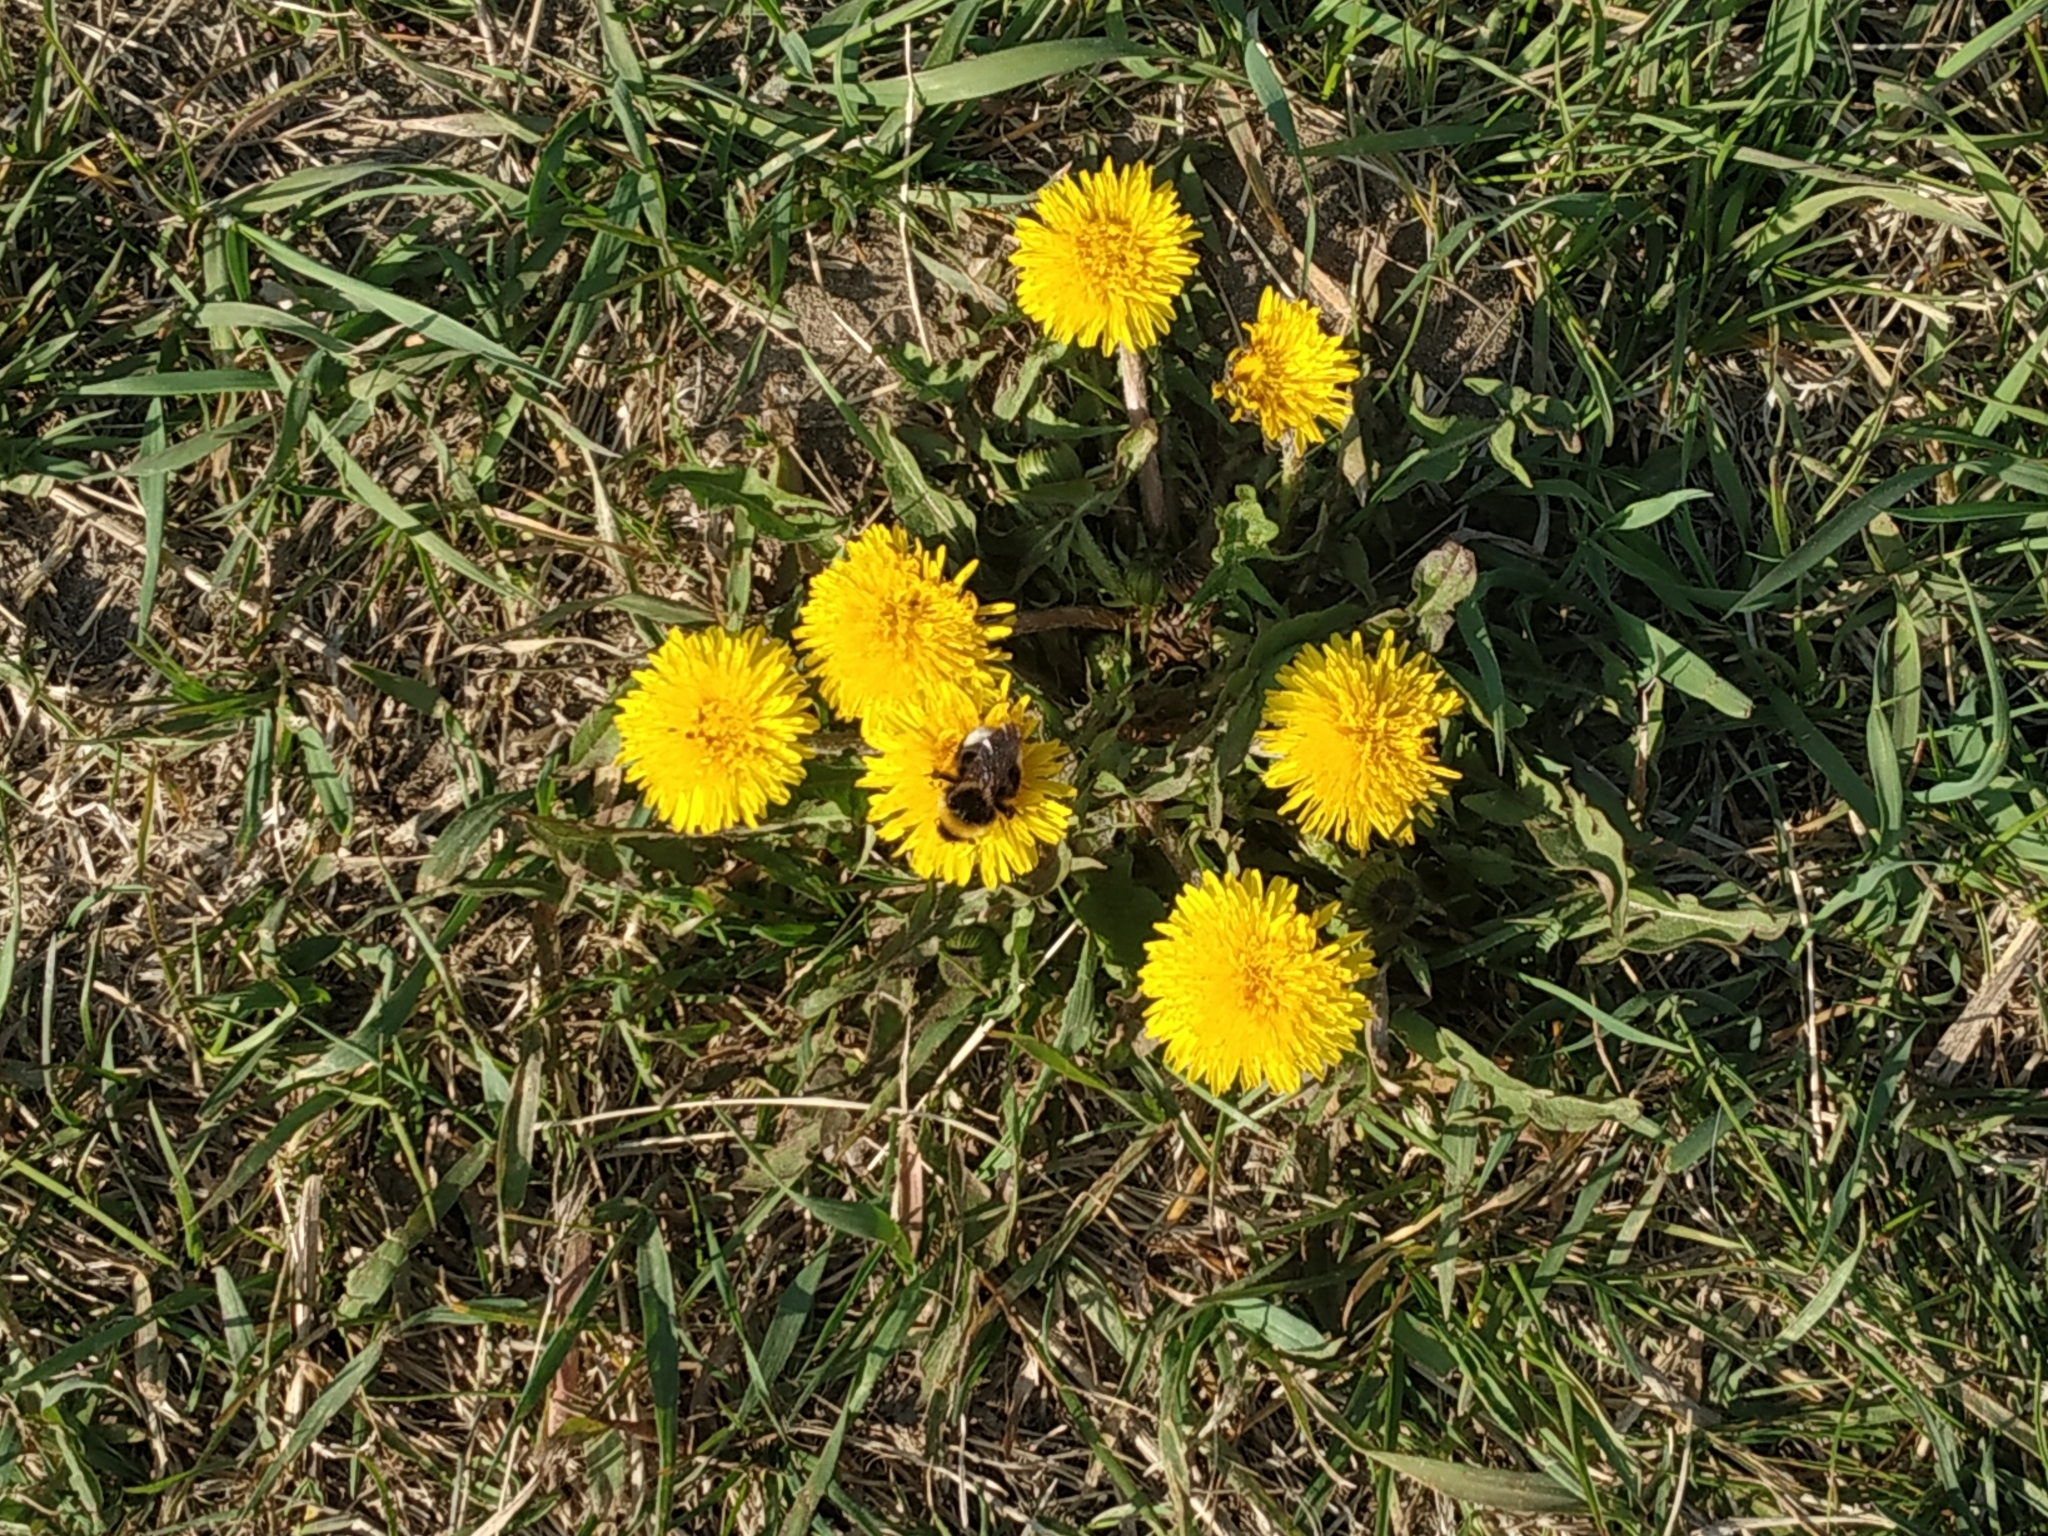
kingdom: Plantae
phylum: Tracheophyta
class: Magnoliopsida
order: Asterales
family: Asteraceae
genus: Taraxacum
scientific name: Taraxacum officinale
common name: Common dandelion
